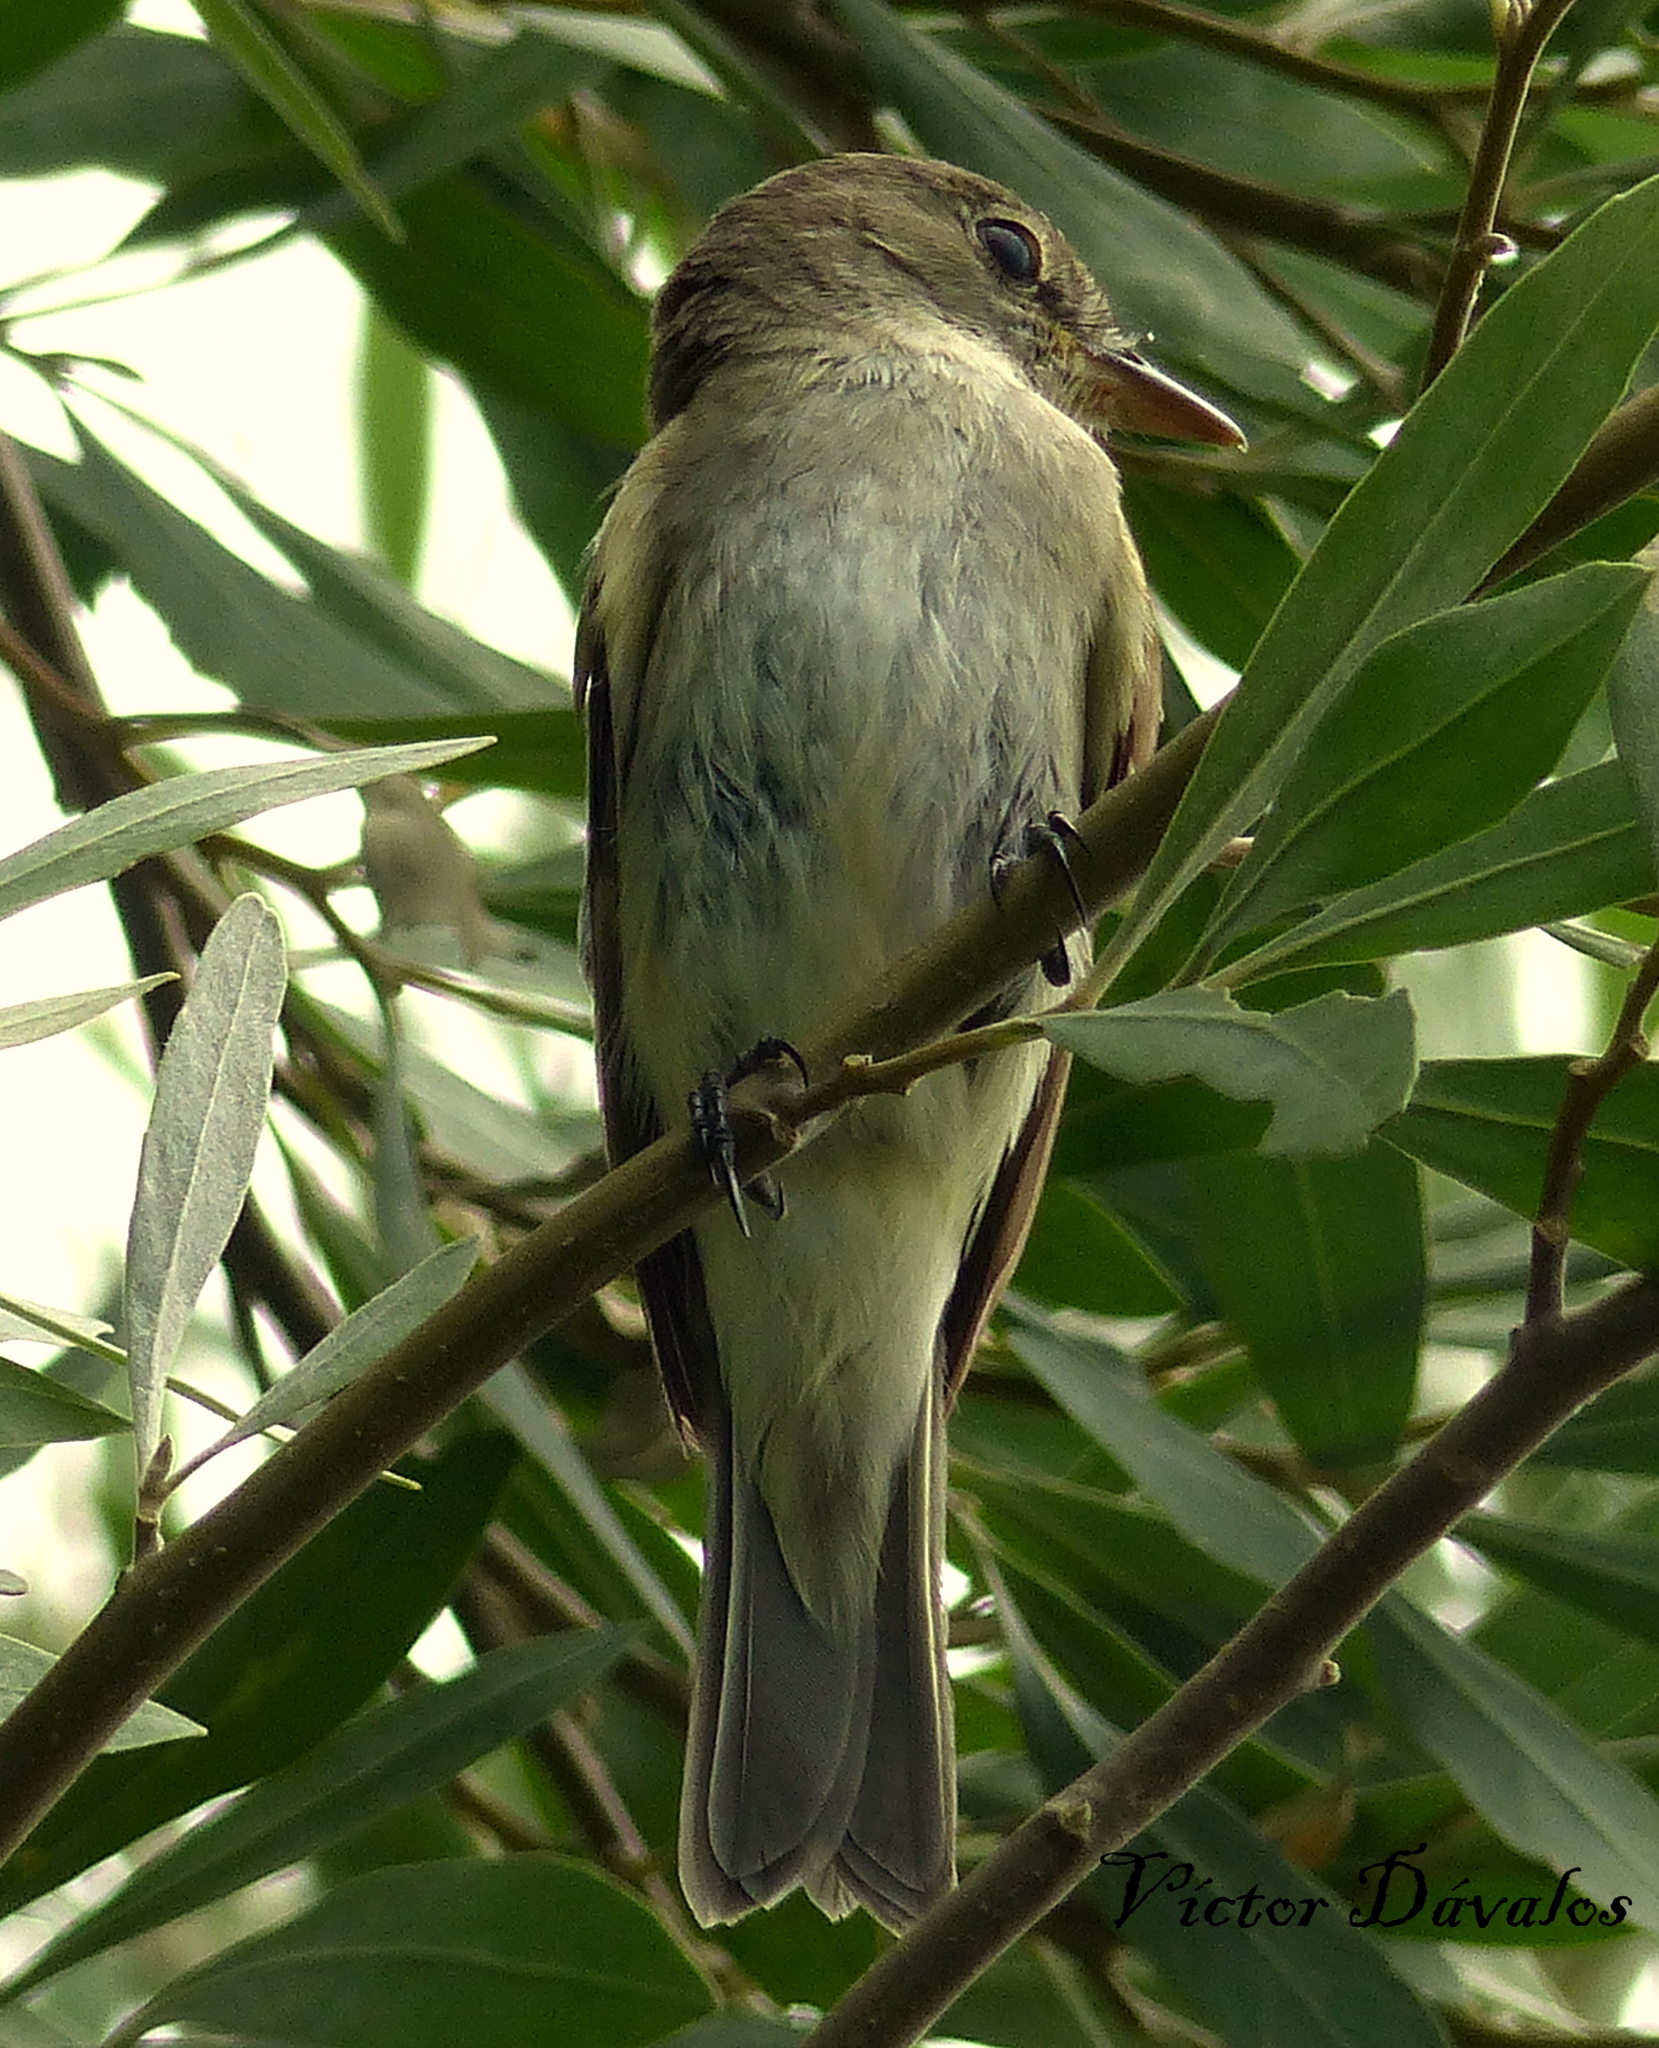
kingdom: Animalia
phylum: Chordata
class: Aves
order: Passeriformes
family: Tyrannidae
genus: Empidonax
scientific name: Empidonax alnorum
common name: Alder flycatcher
